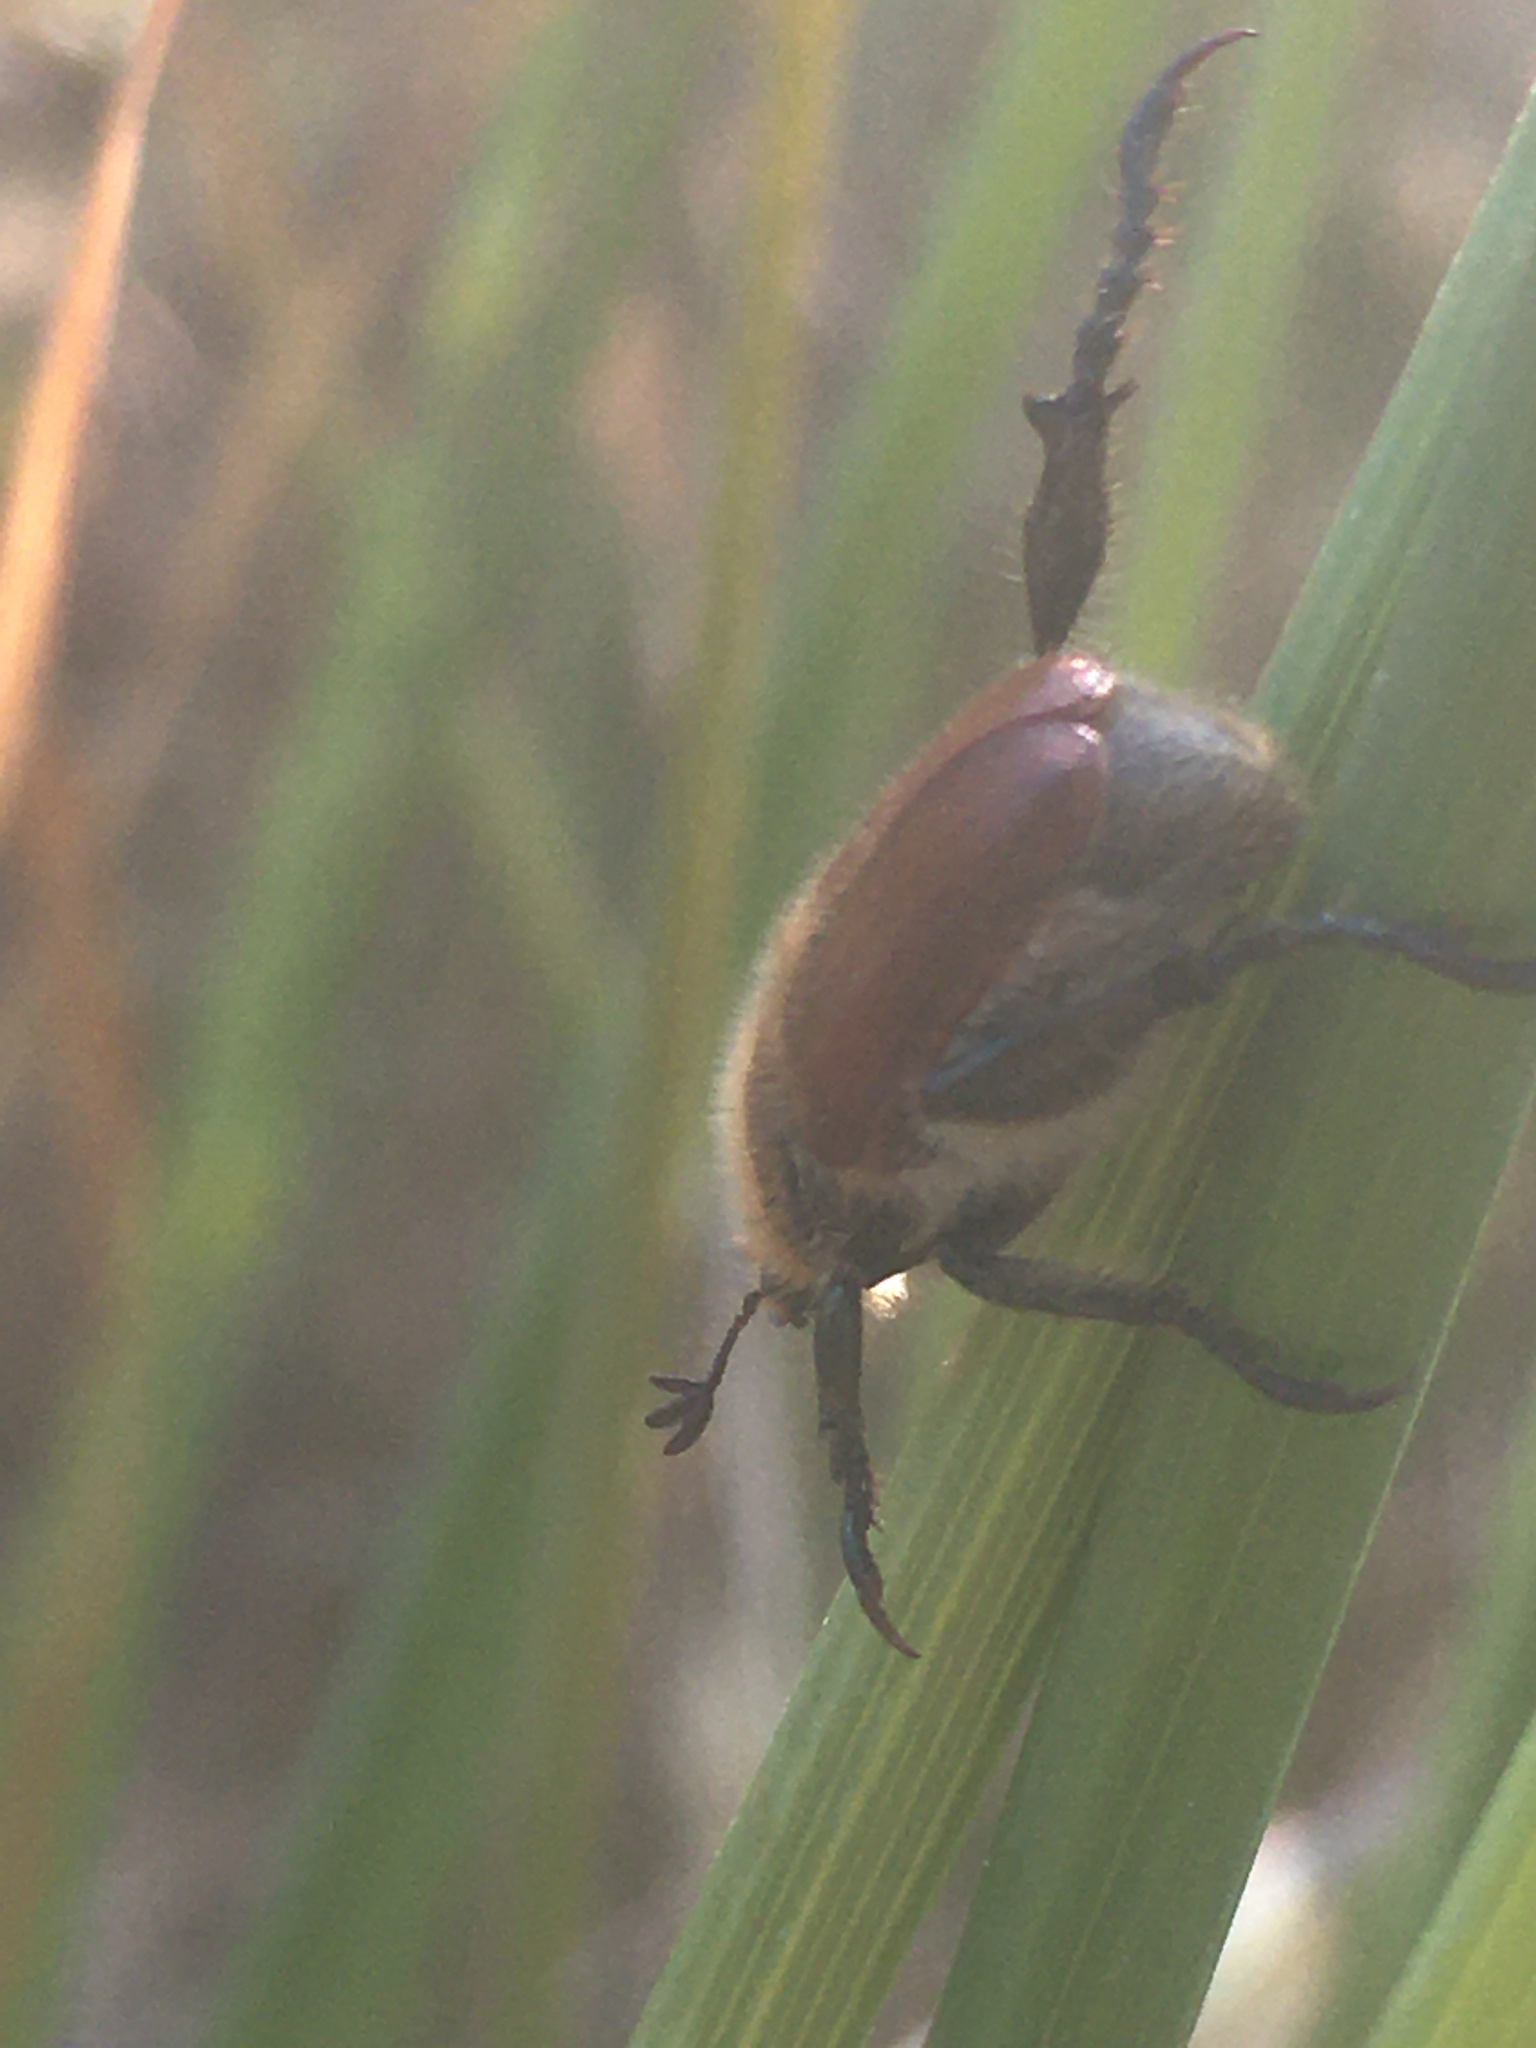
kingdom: Animalia
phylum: Arthropoda
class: Insecta
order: Coleoptera
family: Scarabaeidae
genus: Chaetopteroplia
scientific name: Chaetopteroplia segetum
